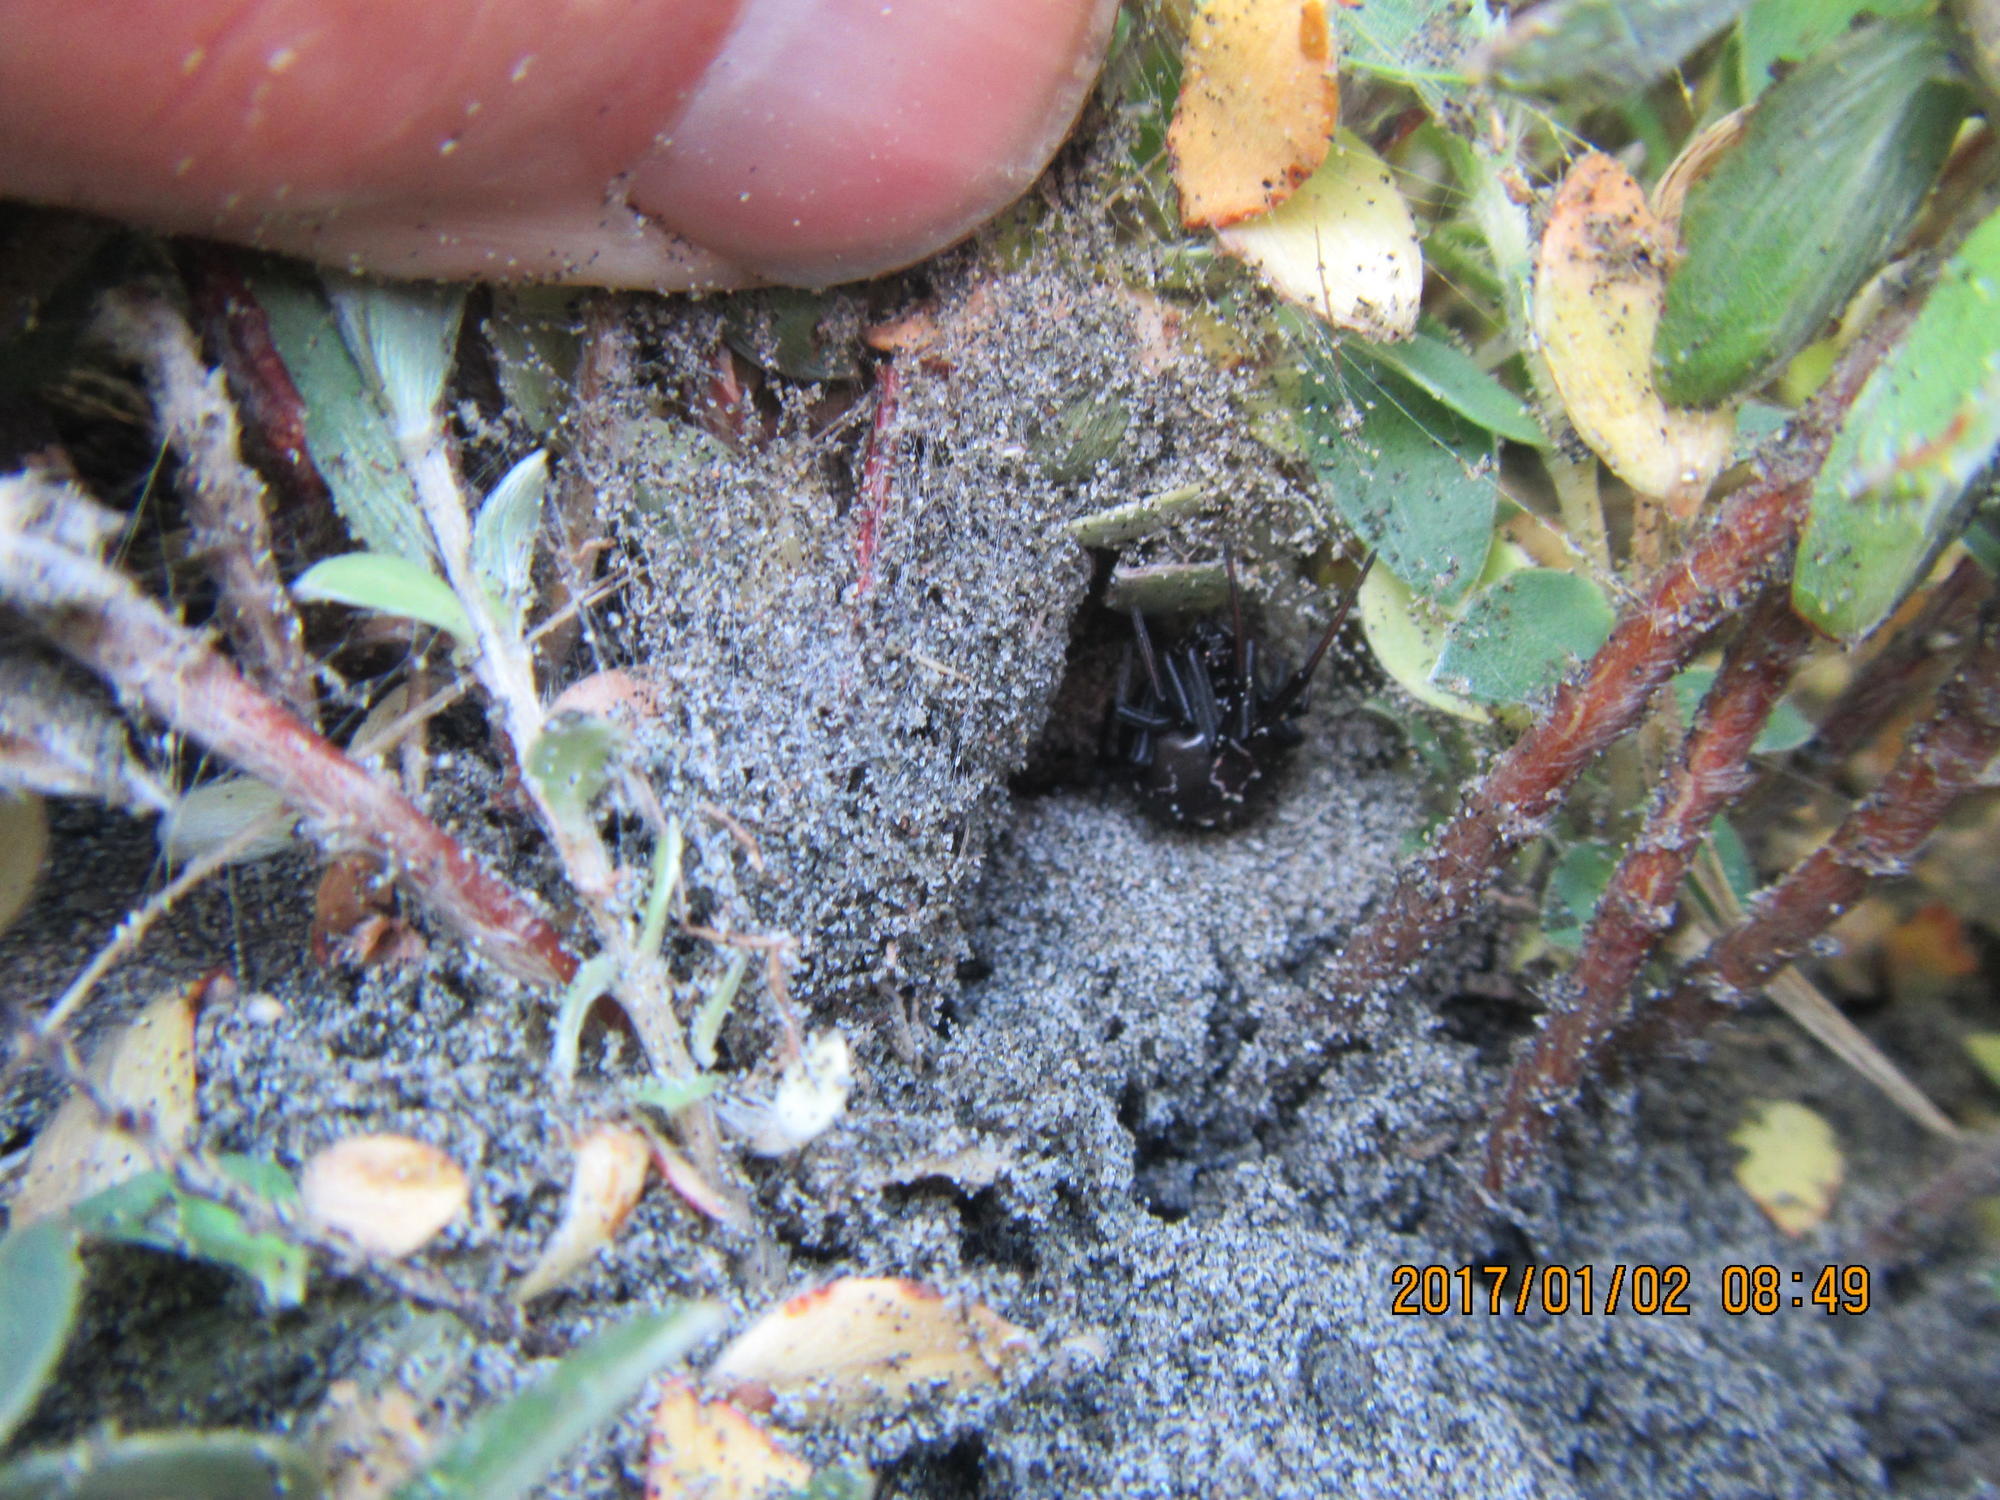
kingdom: Plantae
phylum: Tracheophyta
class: Magnoliopsida
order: Malvales
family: Thymelaeaceae
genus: Pimelea
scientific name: Pimelea villosa
